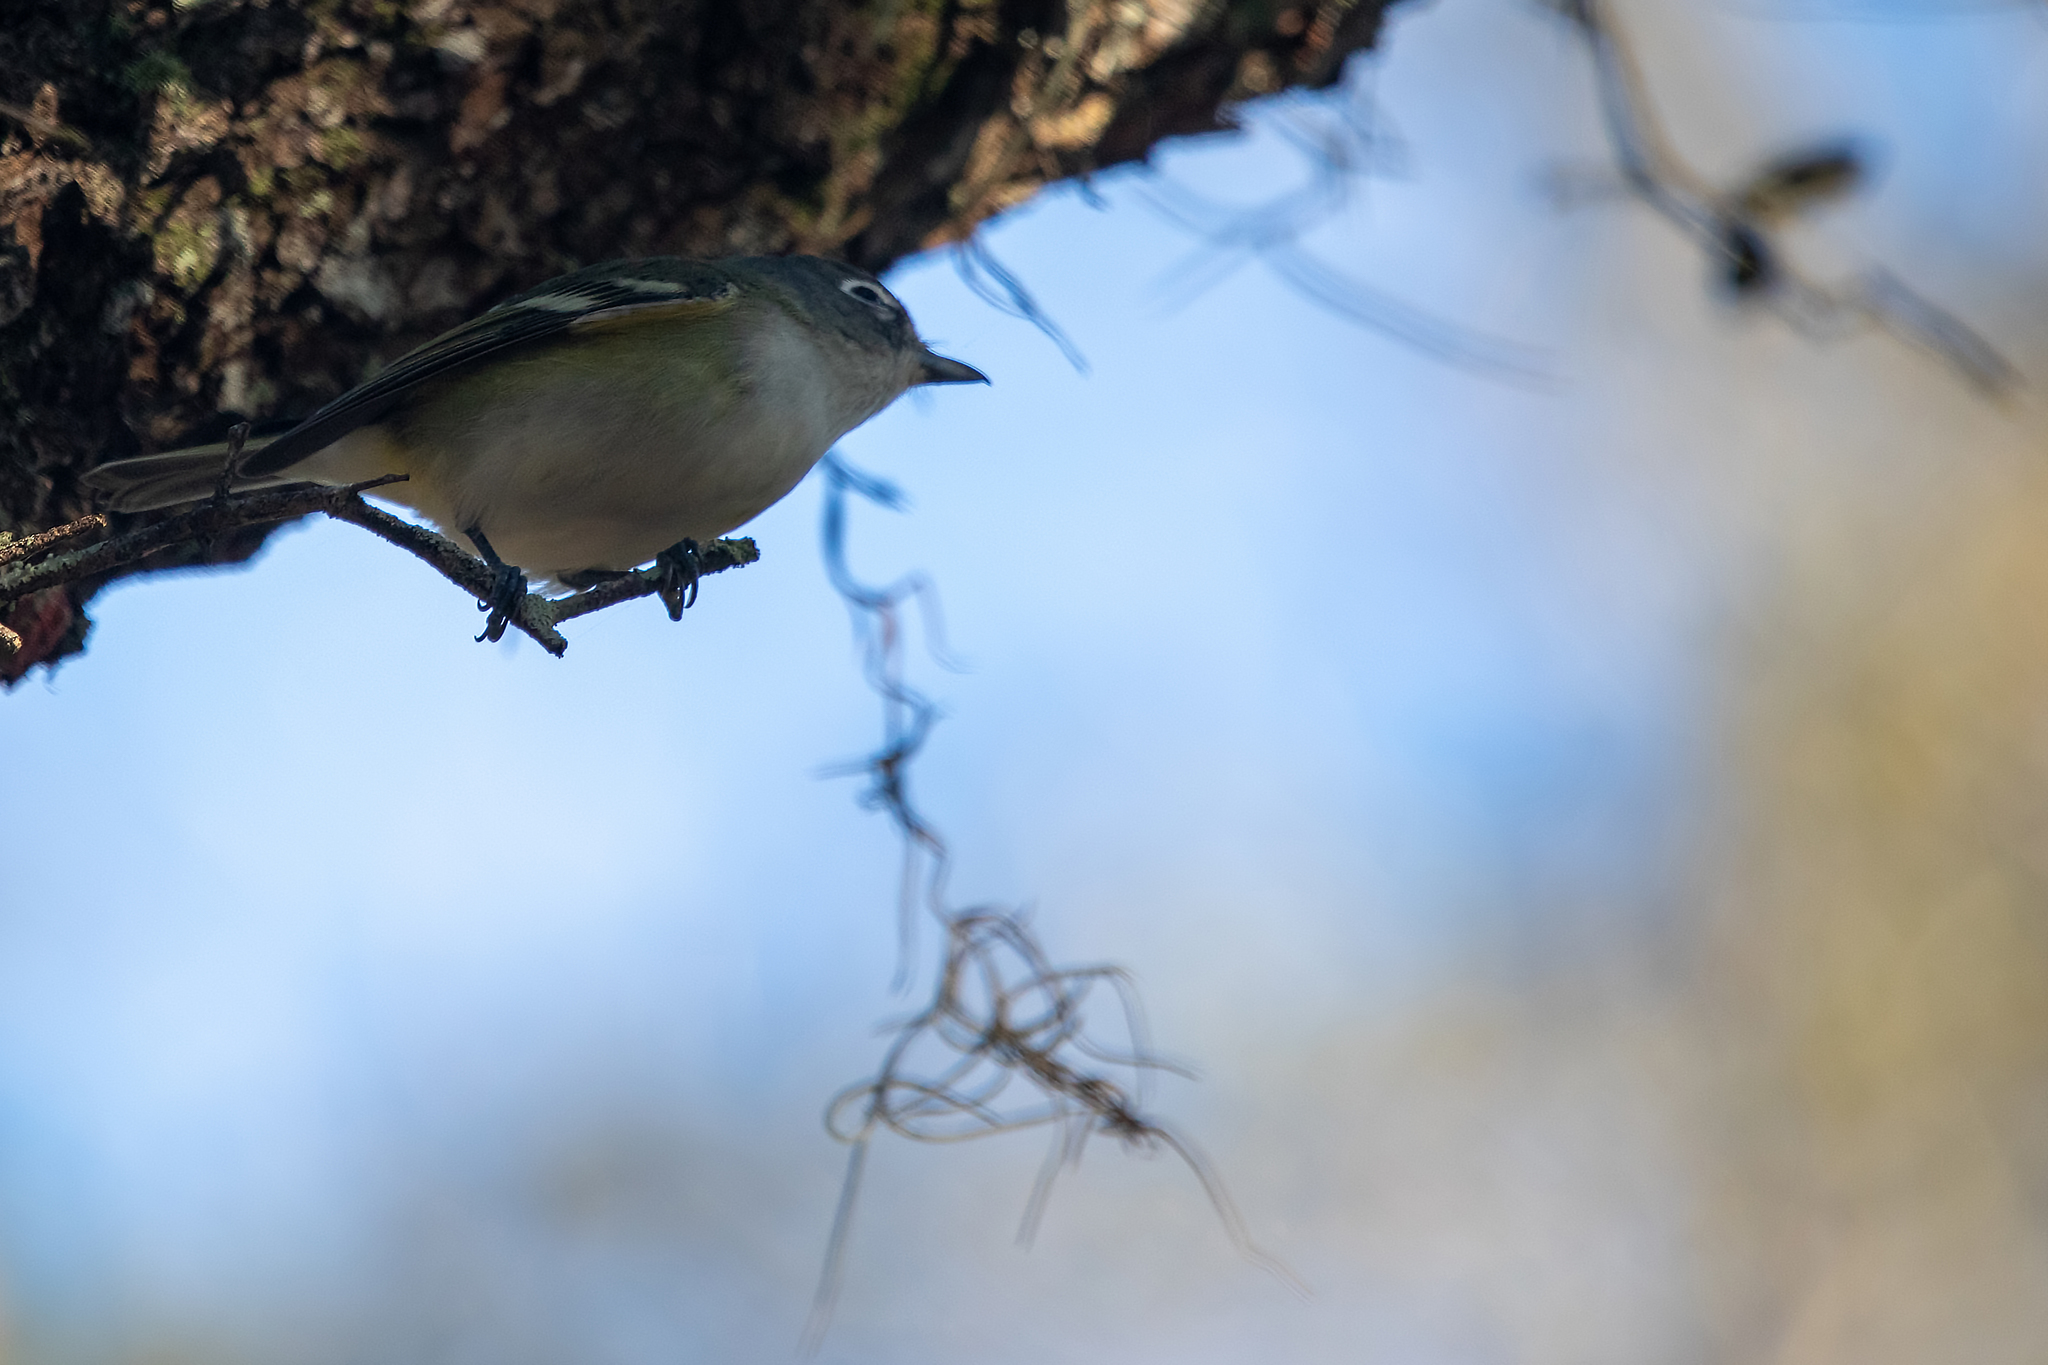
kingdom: Animalia
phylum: Chordata
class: Aves
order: Passeriformes
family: Vireonidae
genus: Vireo
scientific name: Vireo solitarius
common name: Blue-headed vireo
